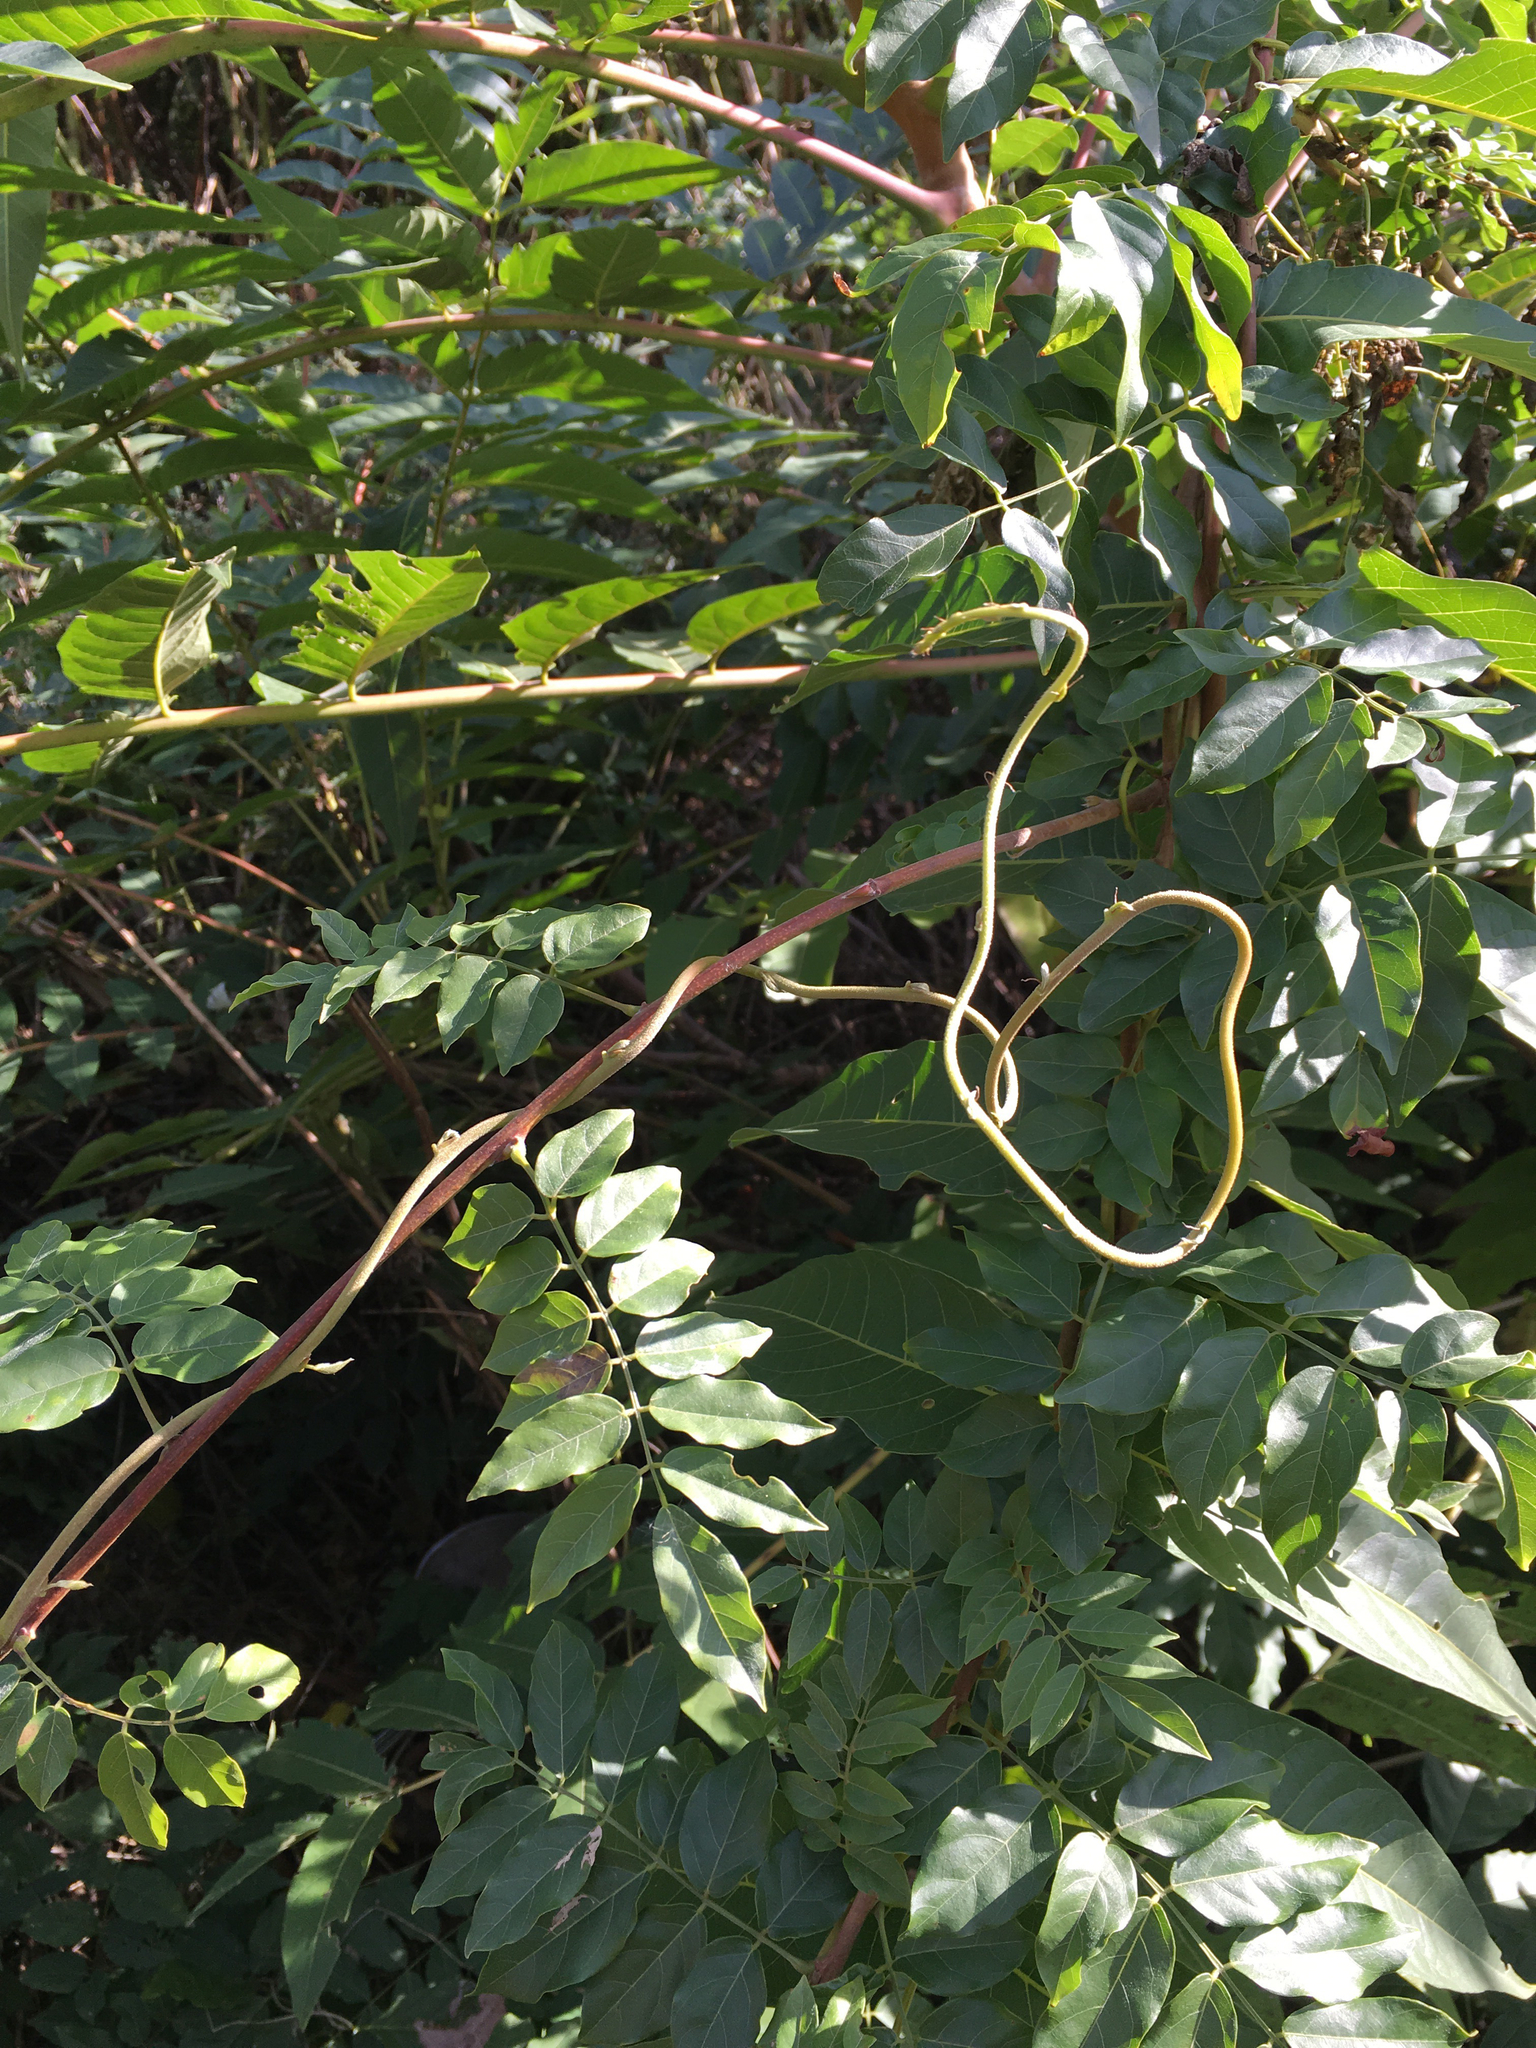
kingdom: Plantae
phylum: Tracheophyta
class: Magnoliopsida
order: Fabales
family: Fabaceae
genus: Wisteria
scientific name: Wisteria sinensis
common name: Chinese wisteria
